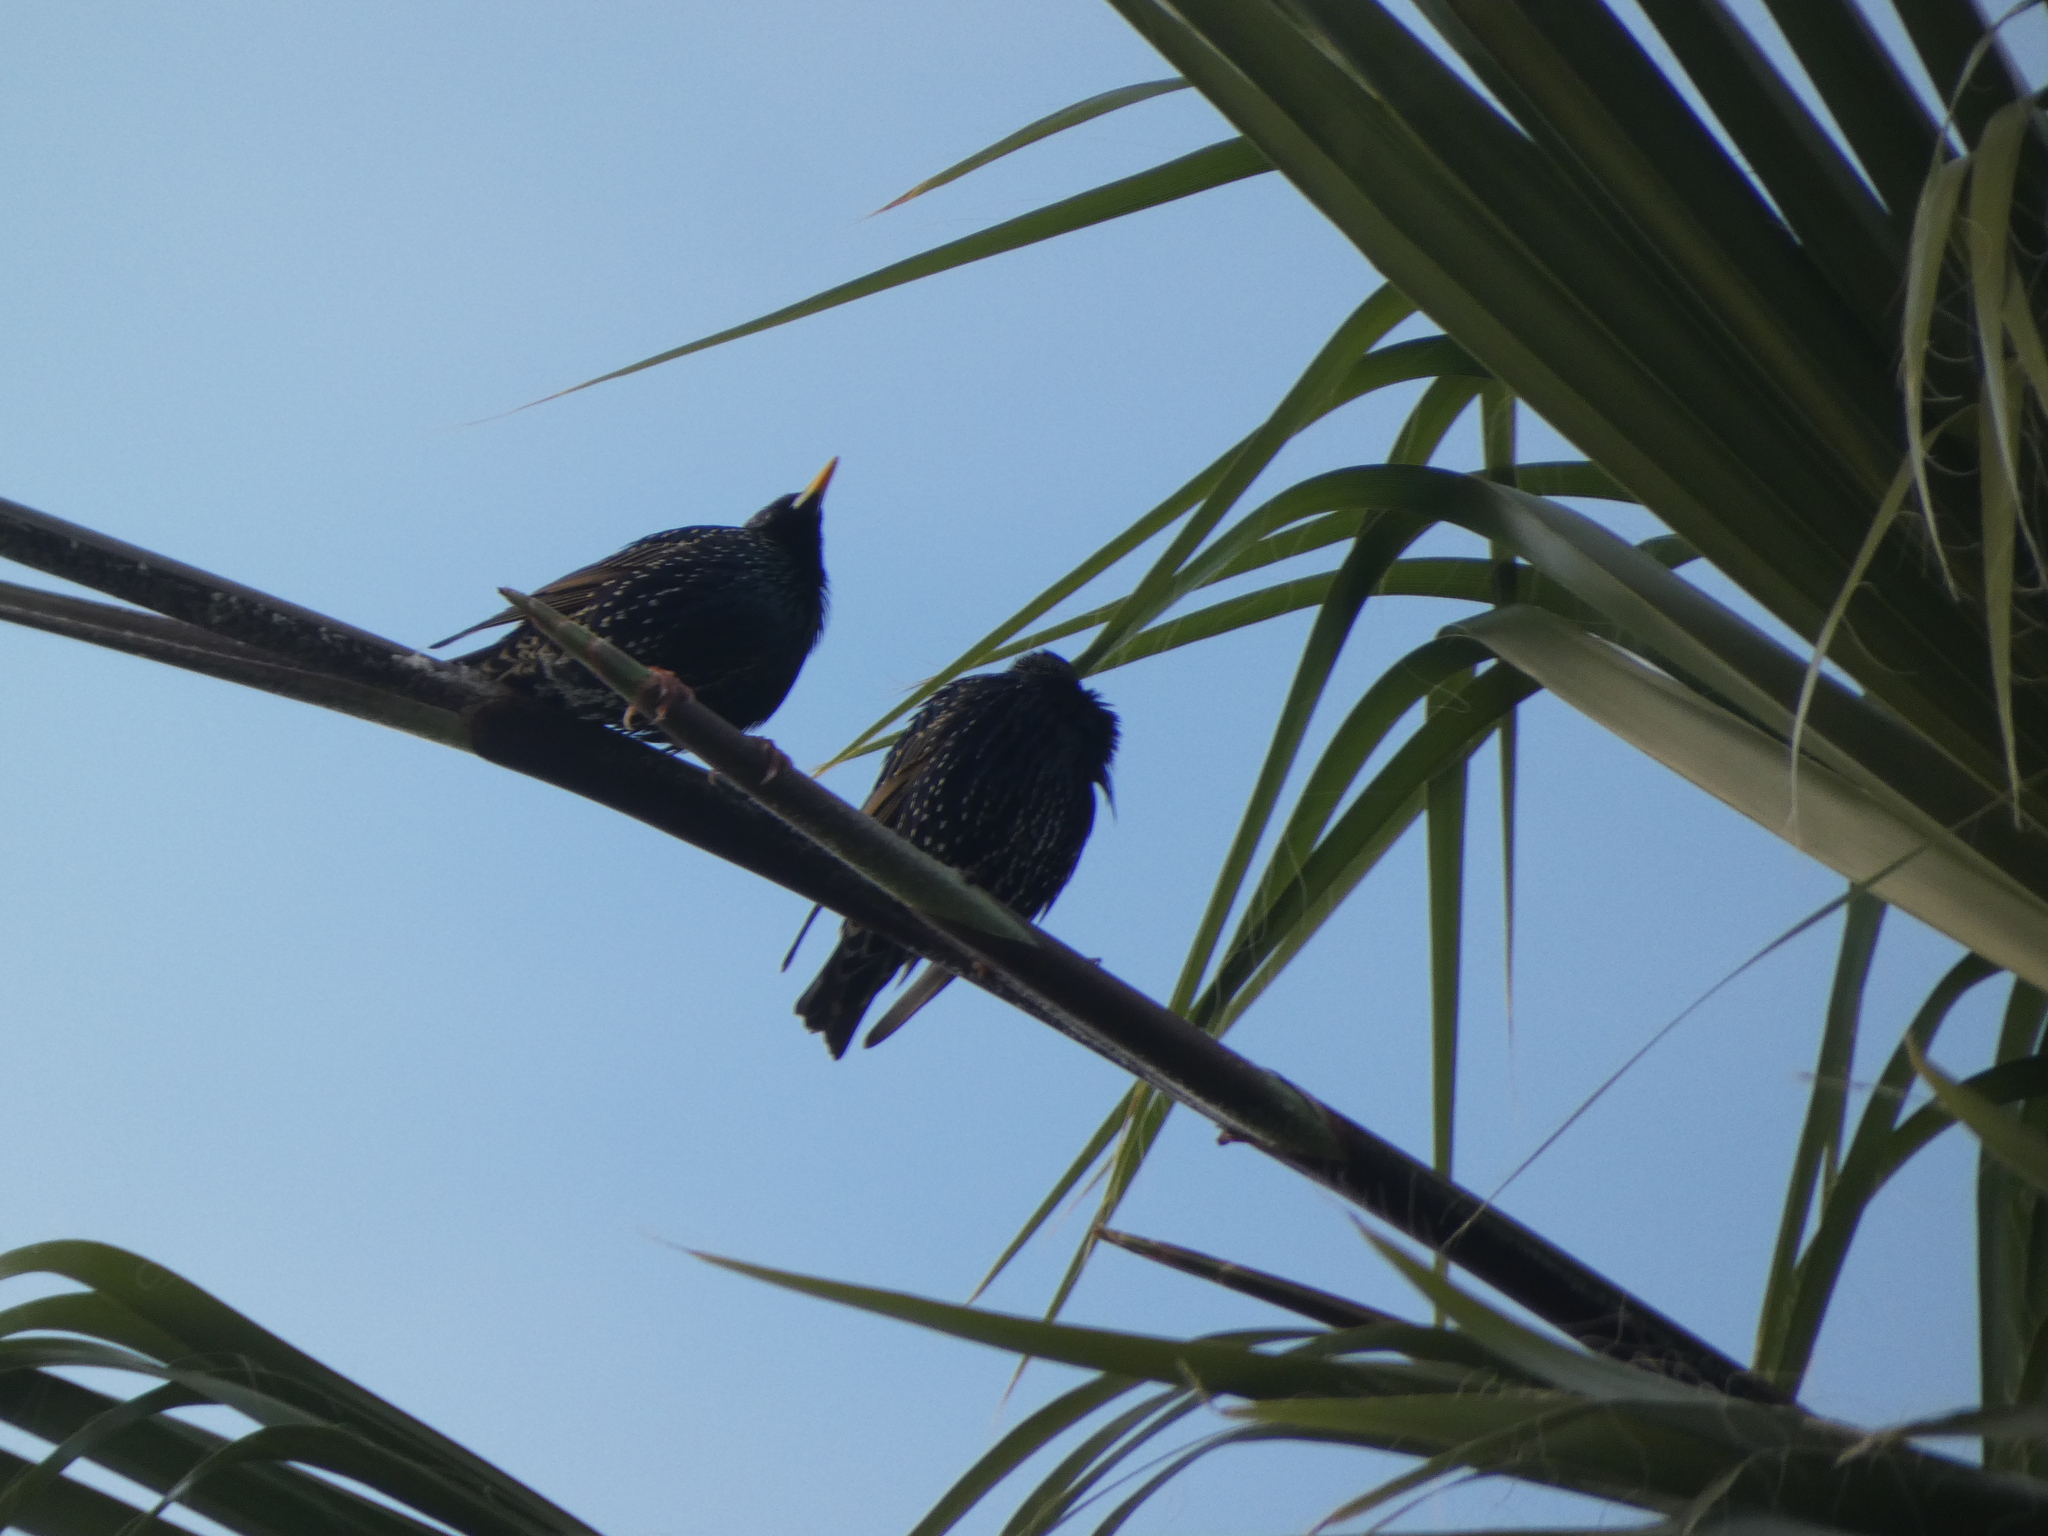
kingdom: Animalia
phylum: Chordata
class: Aves
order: Passeriformes
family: Sturnidae
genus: Sturnus
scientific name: Sturnus vulgaris
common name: Common starling
